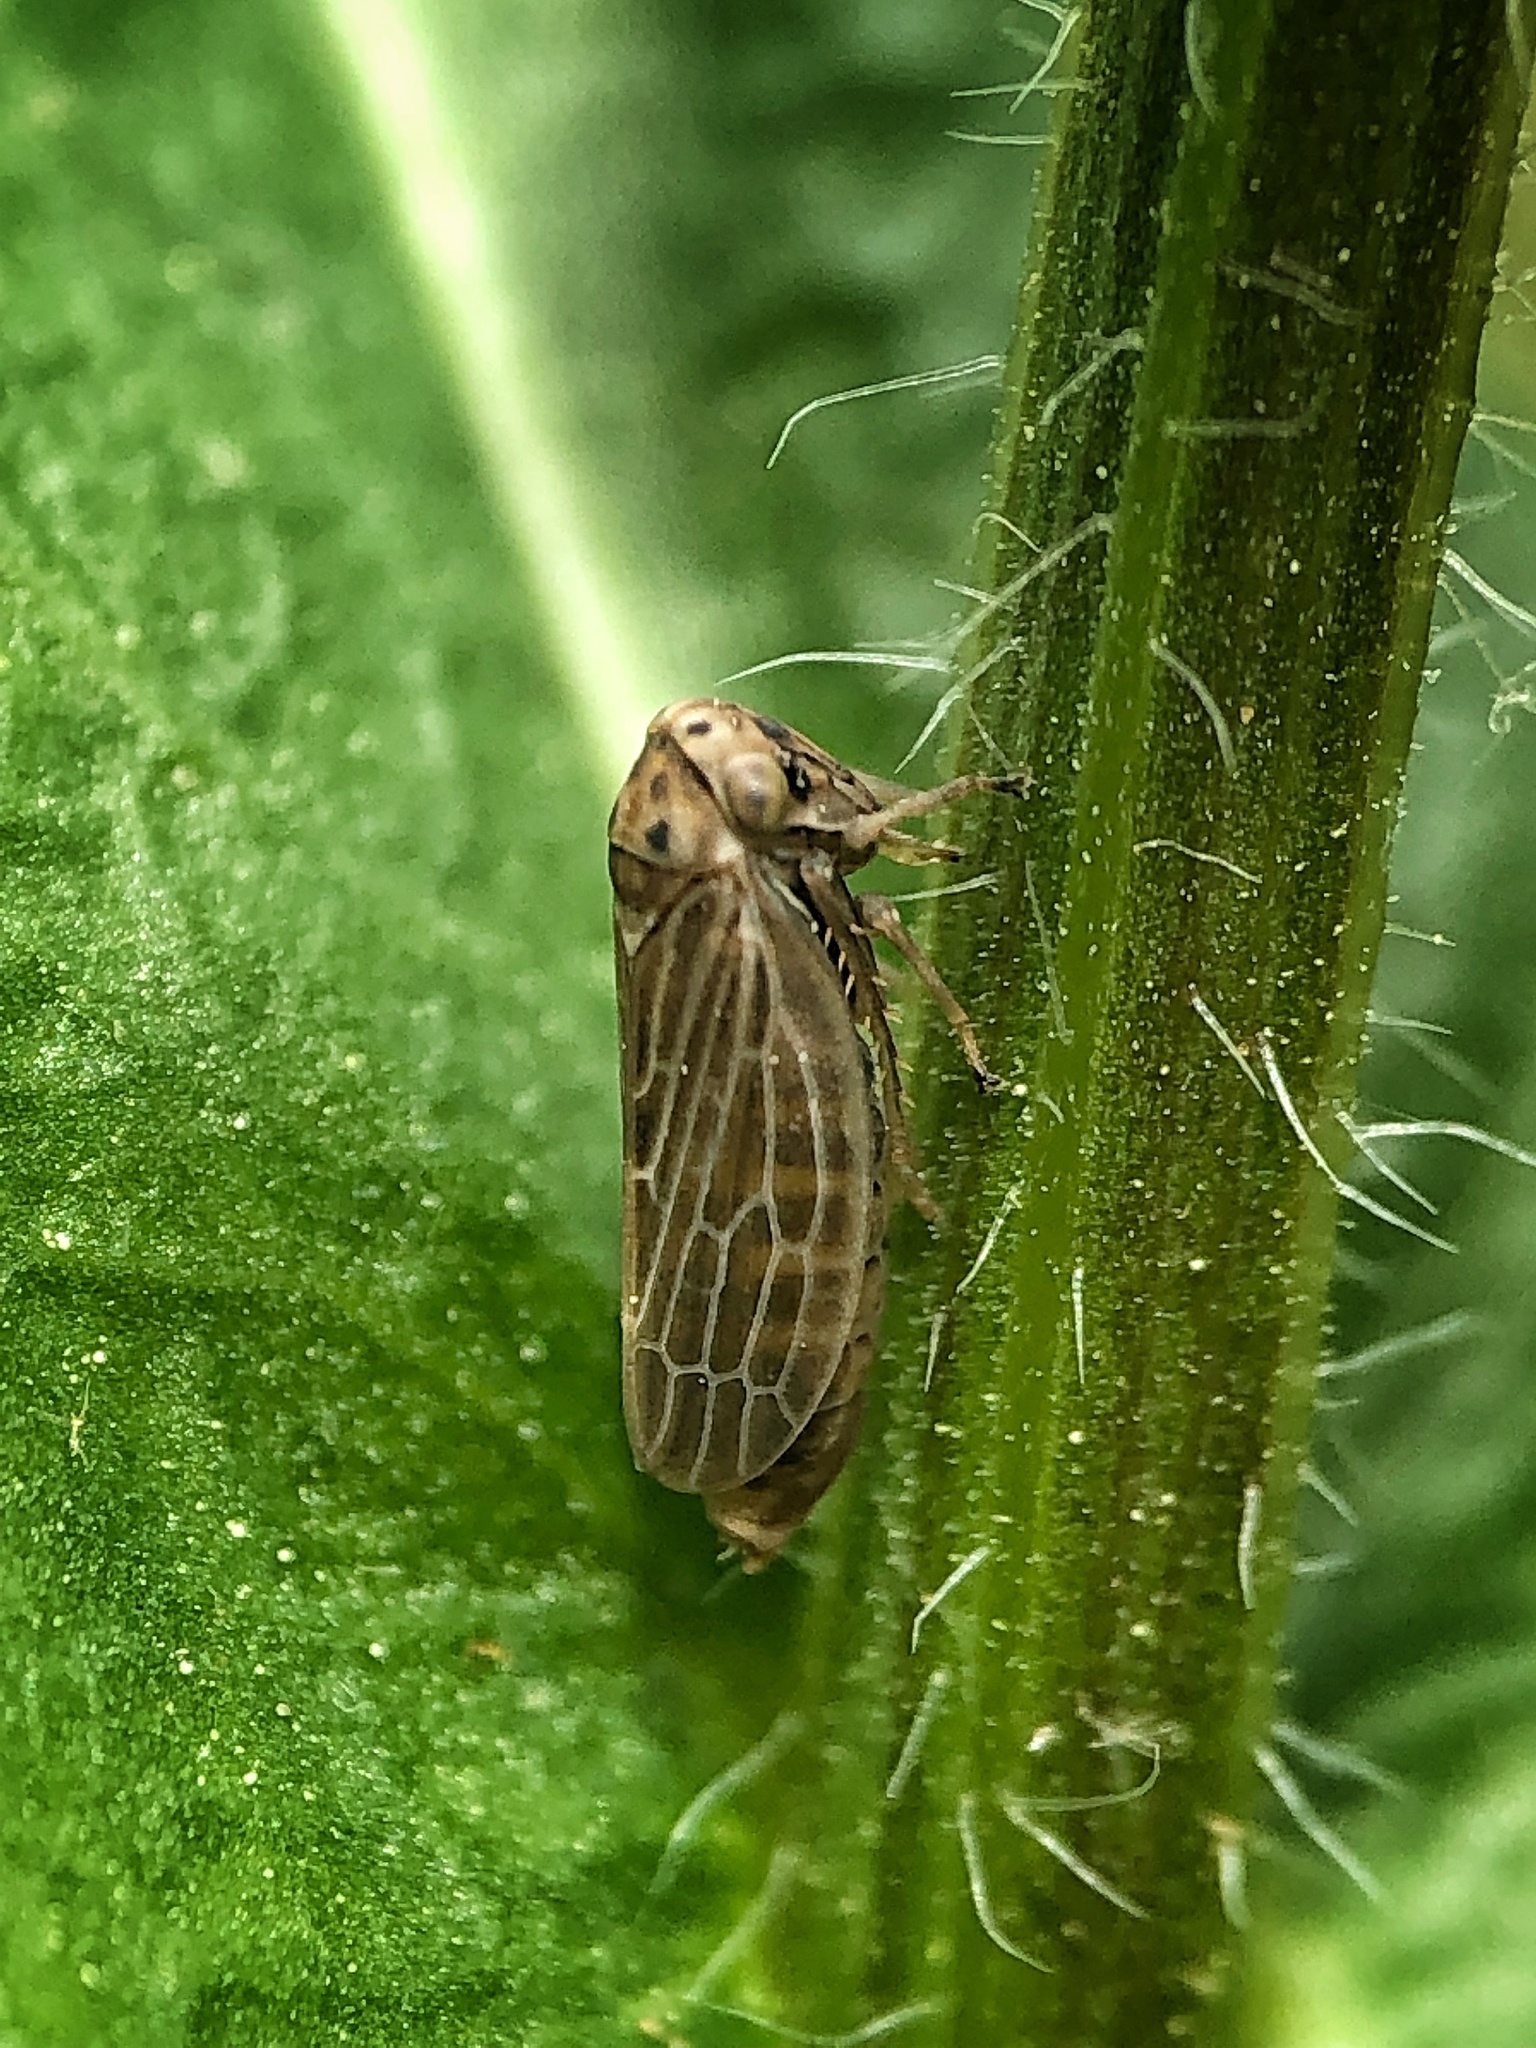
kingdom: Animalia
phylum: Arthropoda
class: Insecta
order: Hemiptera
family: Cicadellidae
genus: Agalliota
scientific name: Agalliota quadripunctata
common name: The four-spotted clover leafhopper
